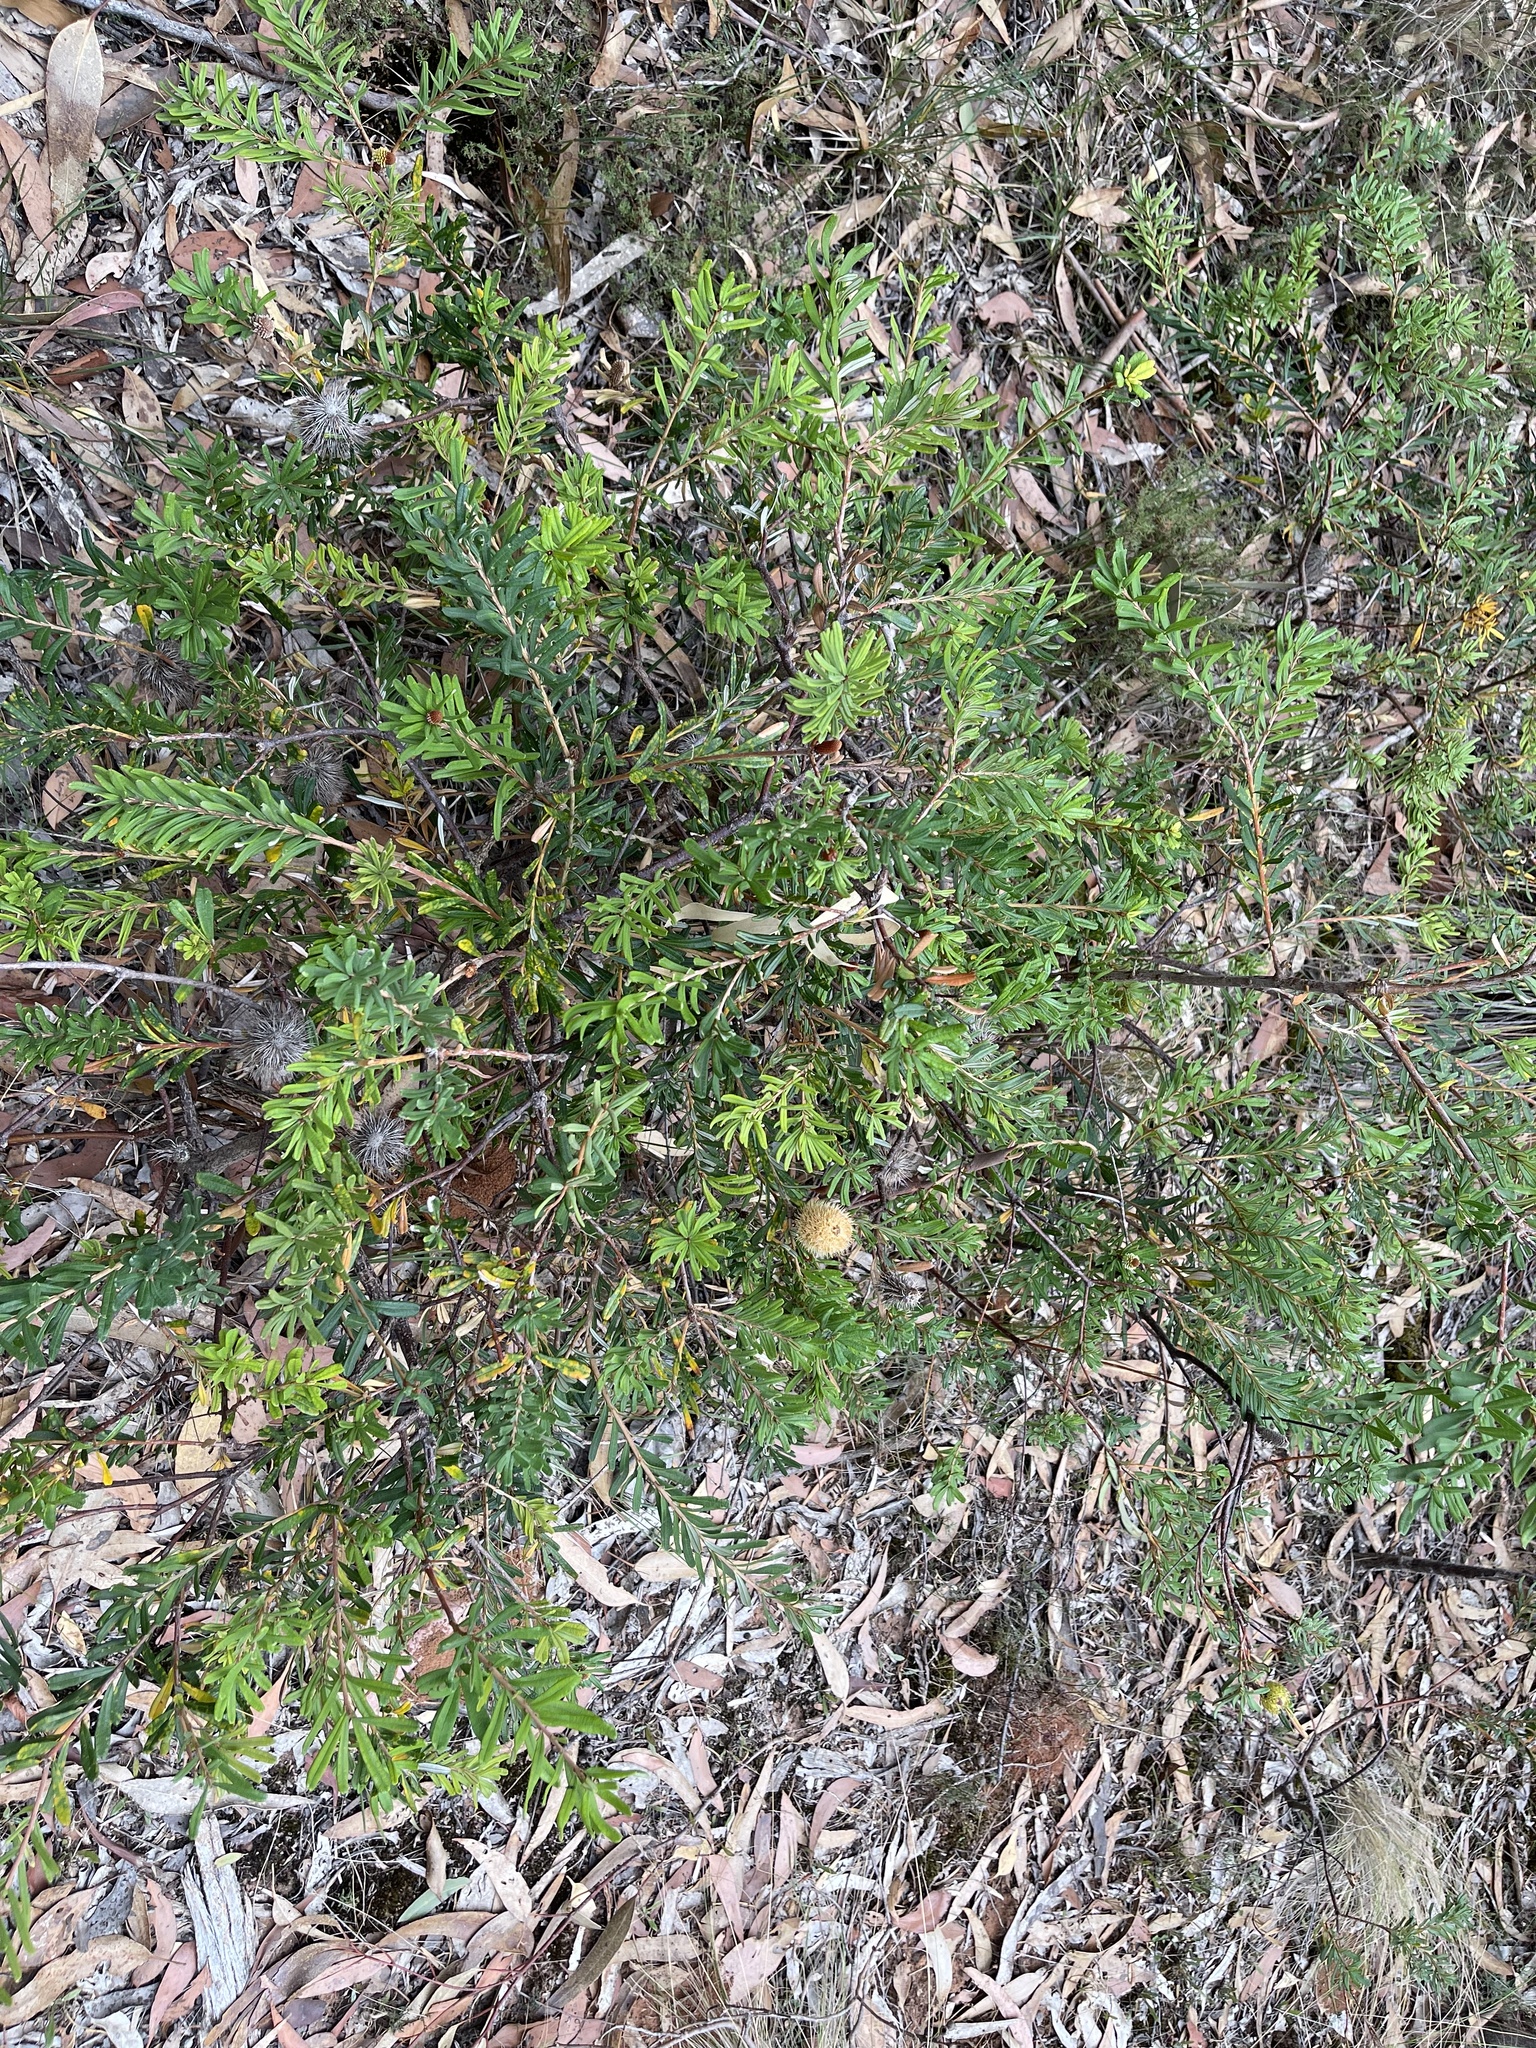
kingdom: Plantae
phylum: Tracheophyta
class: Magnoliopsida
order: Proteales
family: Proteaceae
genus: Banksia
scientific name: Banksia marginata
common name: Silver banksia
